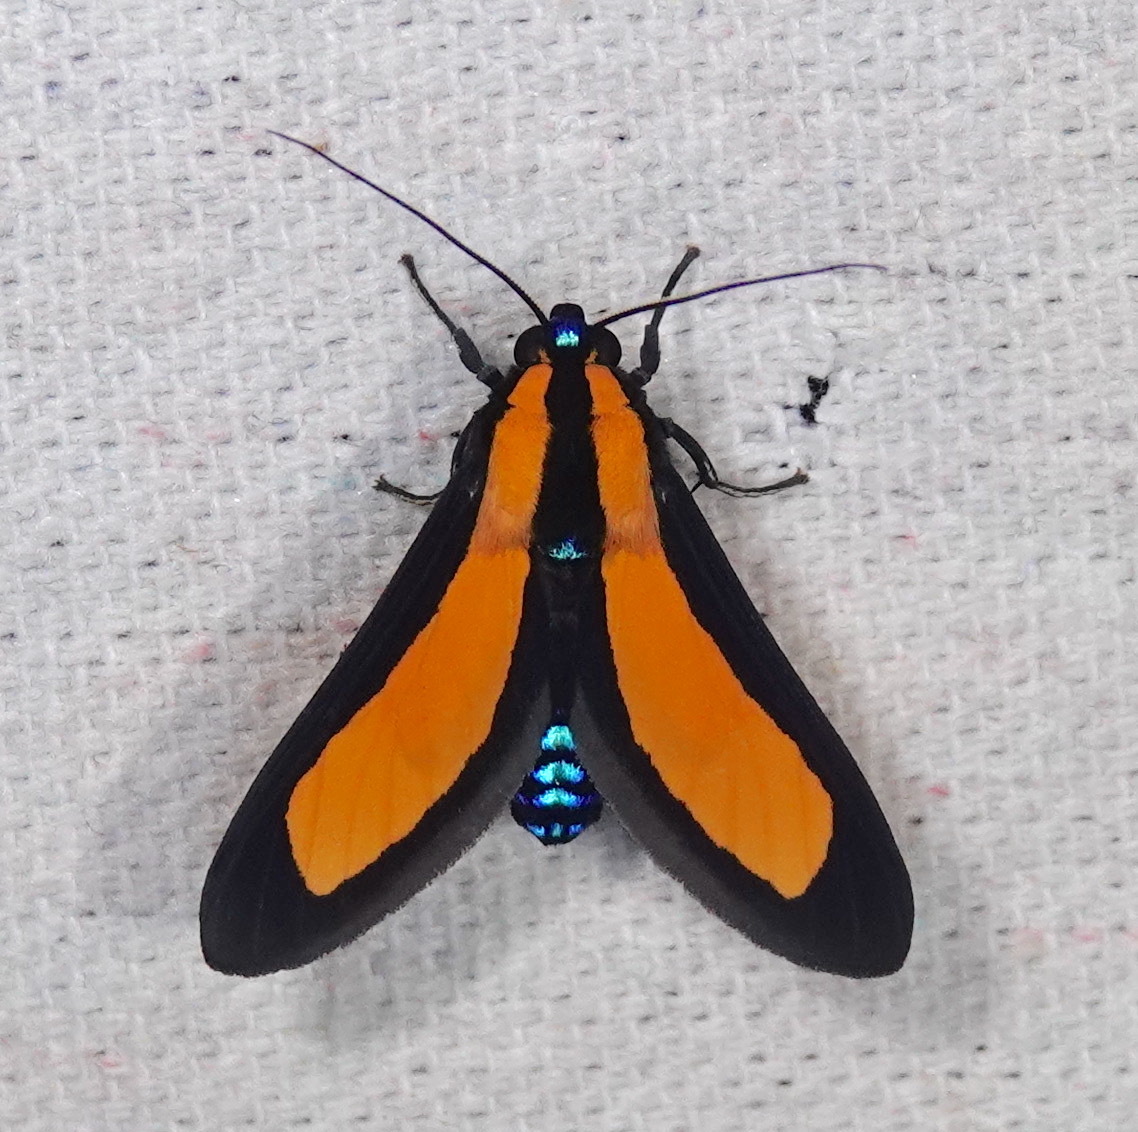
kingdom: Animalia
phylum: Arthropoda
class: Insecta
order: Lepidoptera
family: Erebidae
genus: Ormetica
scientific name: Ormetica flavobasalis
